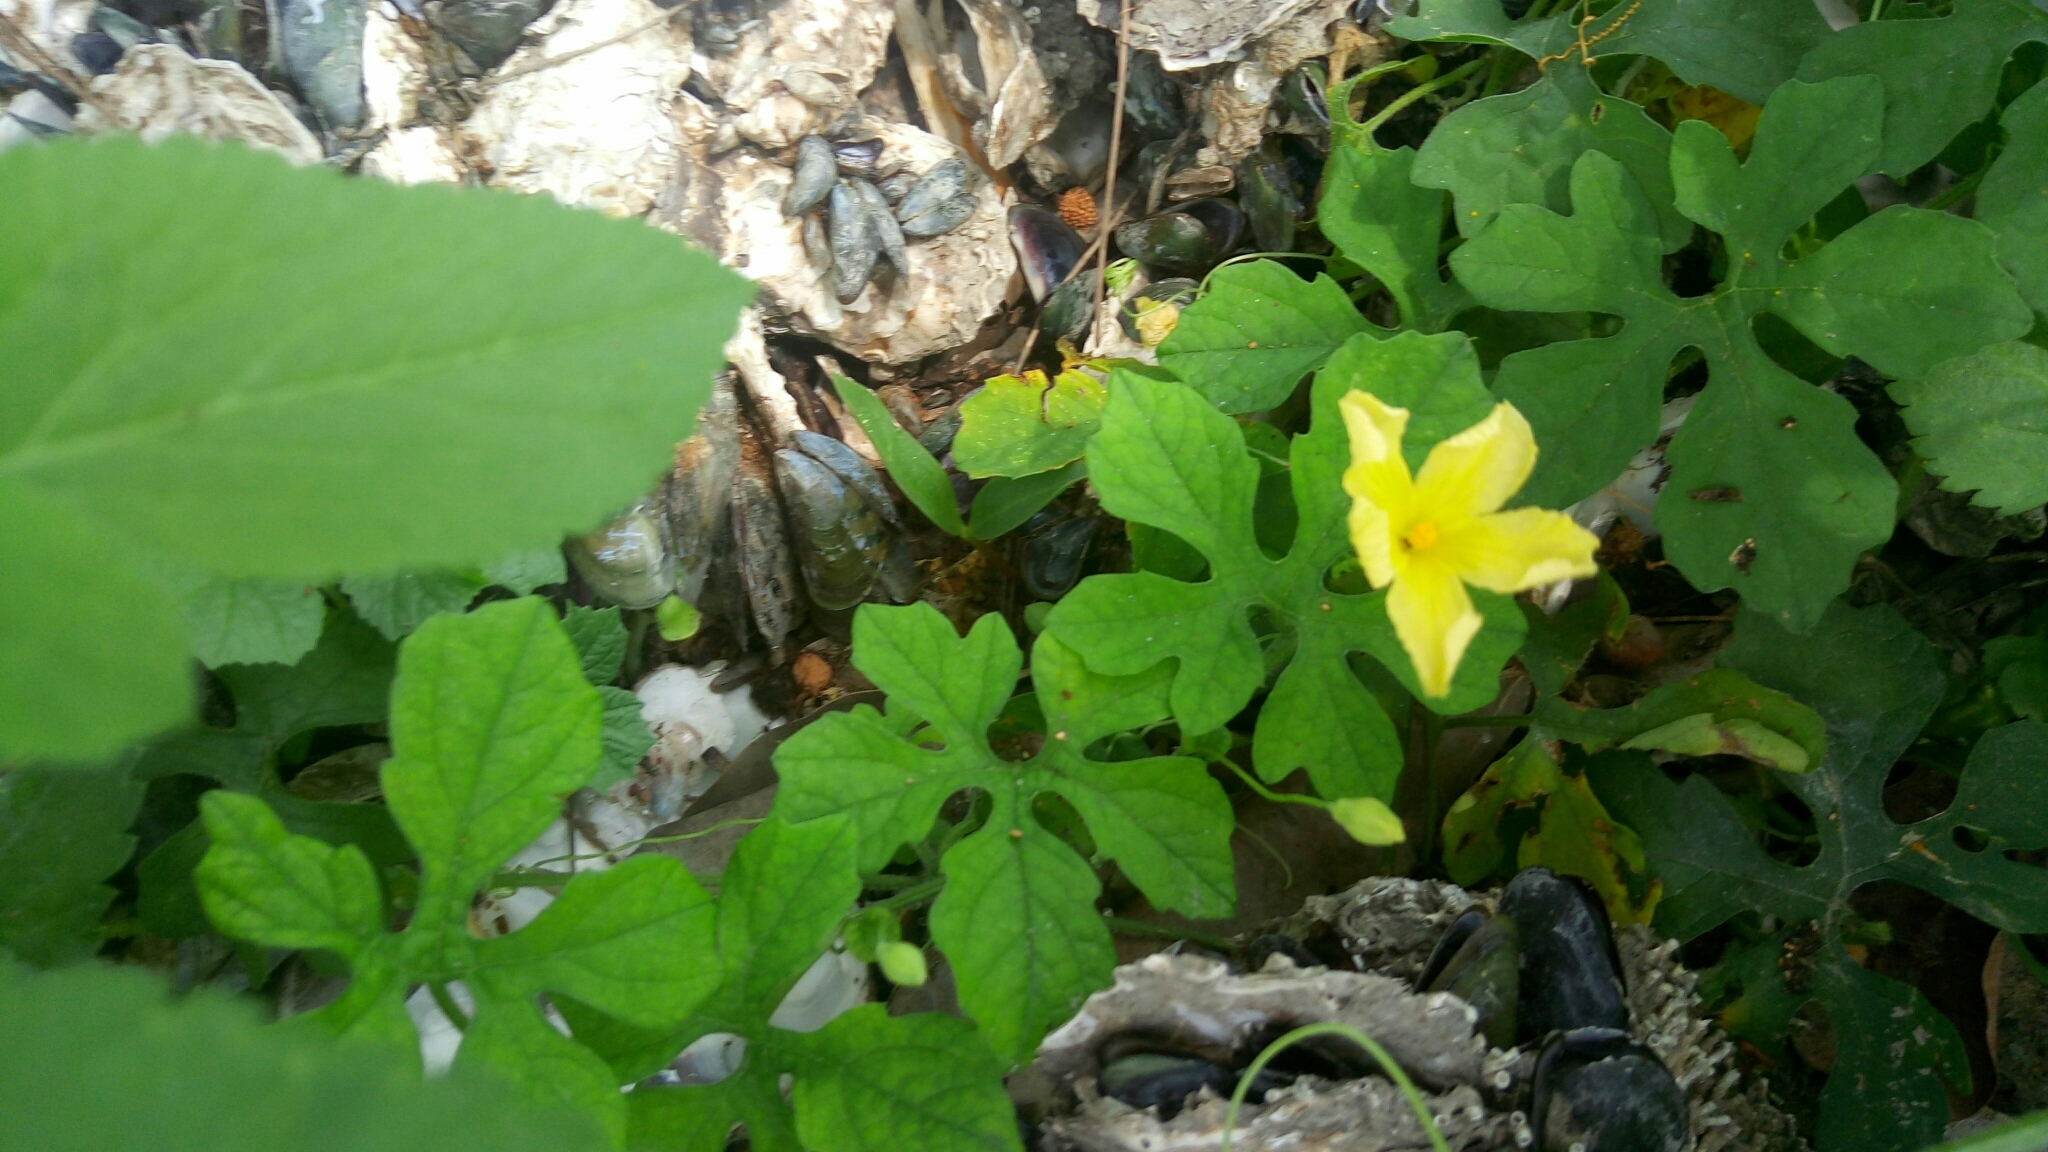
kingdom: Plantae
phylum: Tracheophyta
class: Magnoliopsida
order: Cucurbitales
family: Cucurbitaceae
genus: Momordica
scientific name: Momordica charantia
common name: Balsampear
